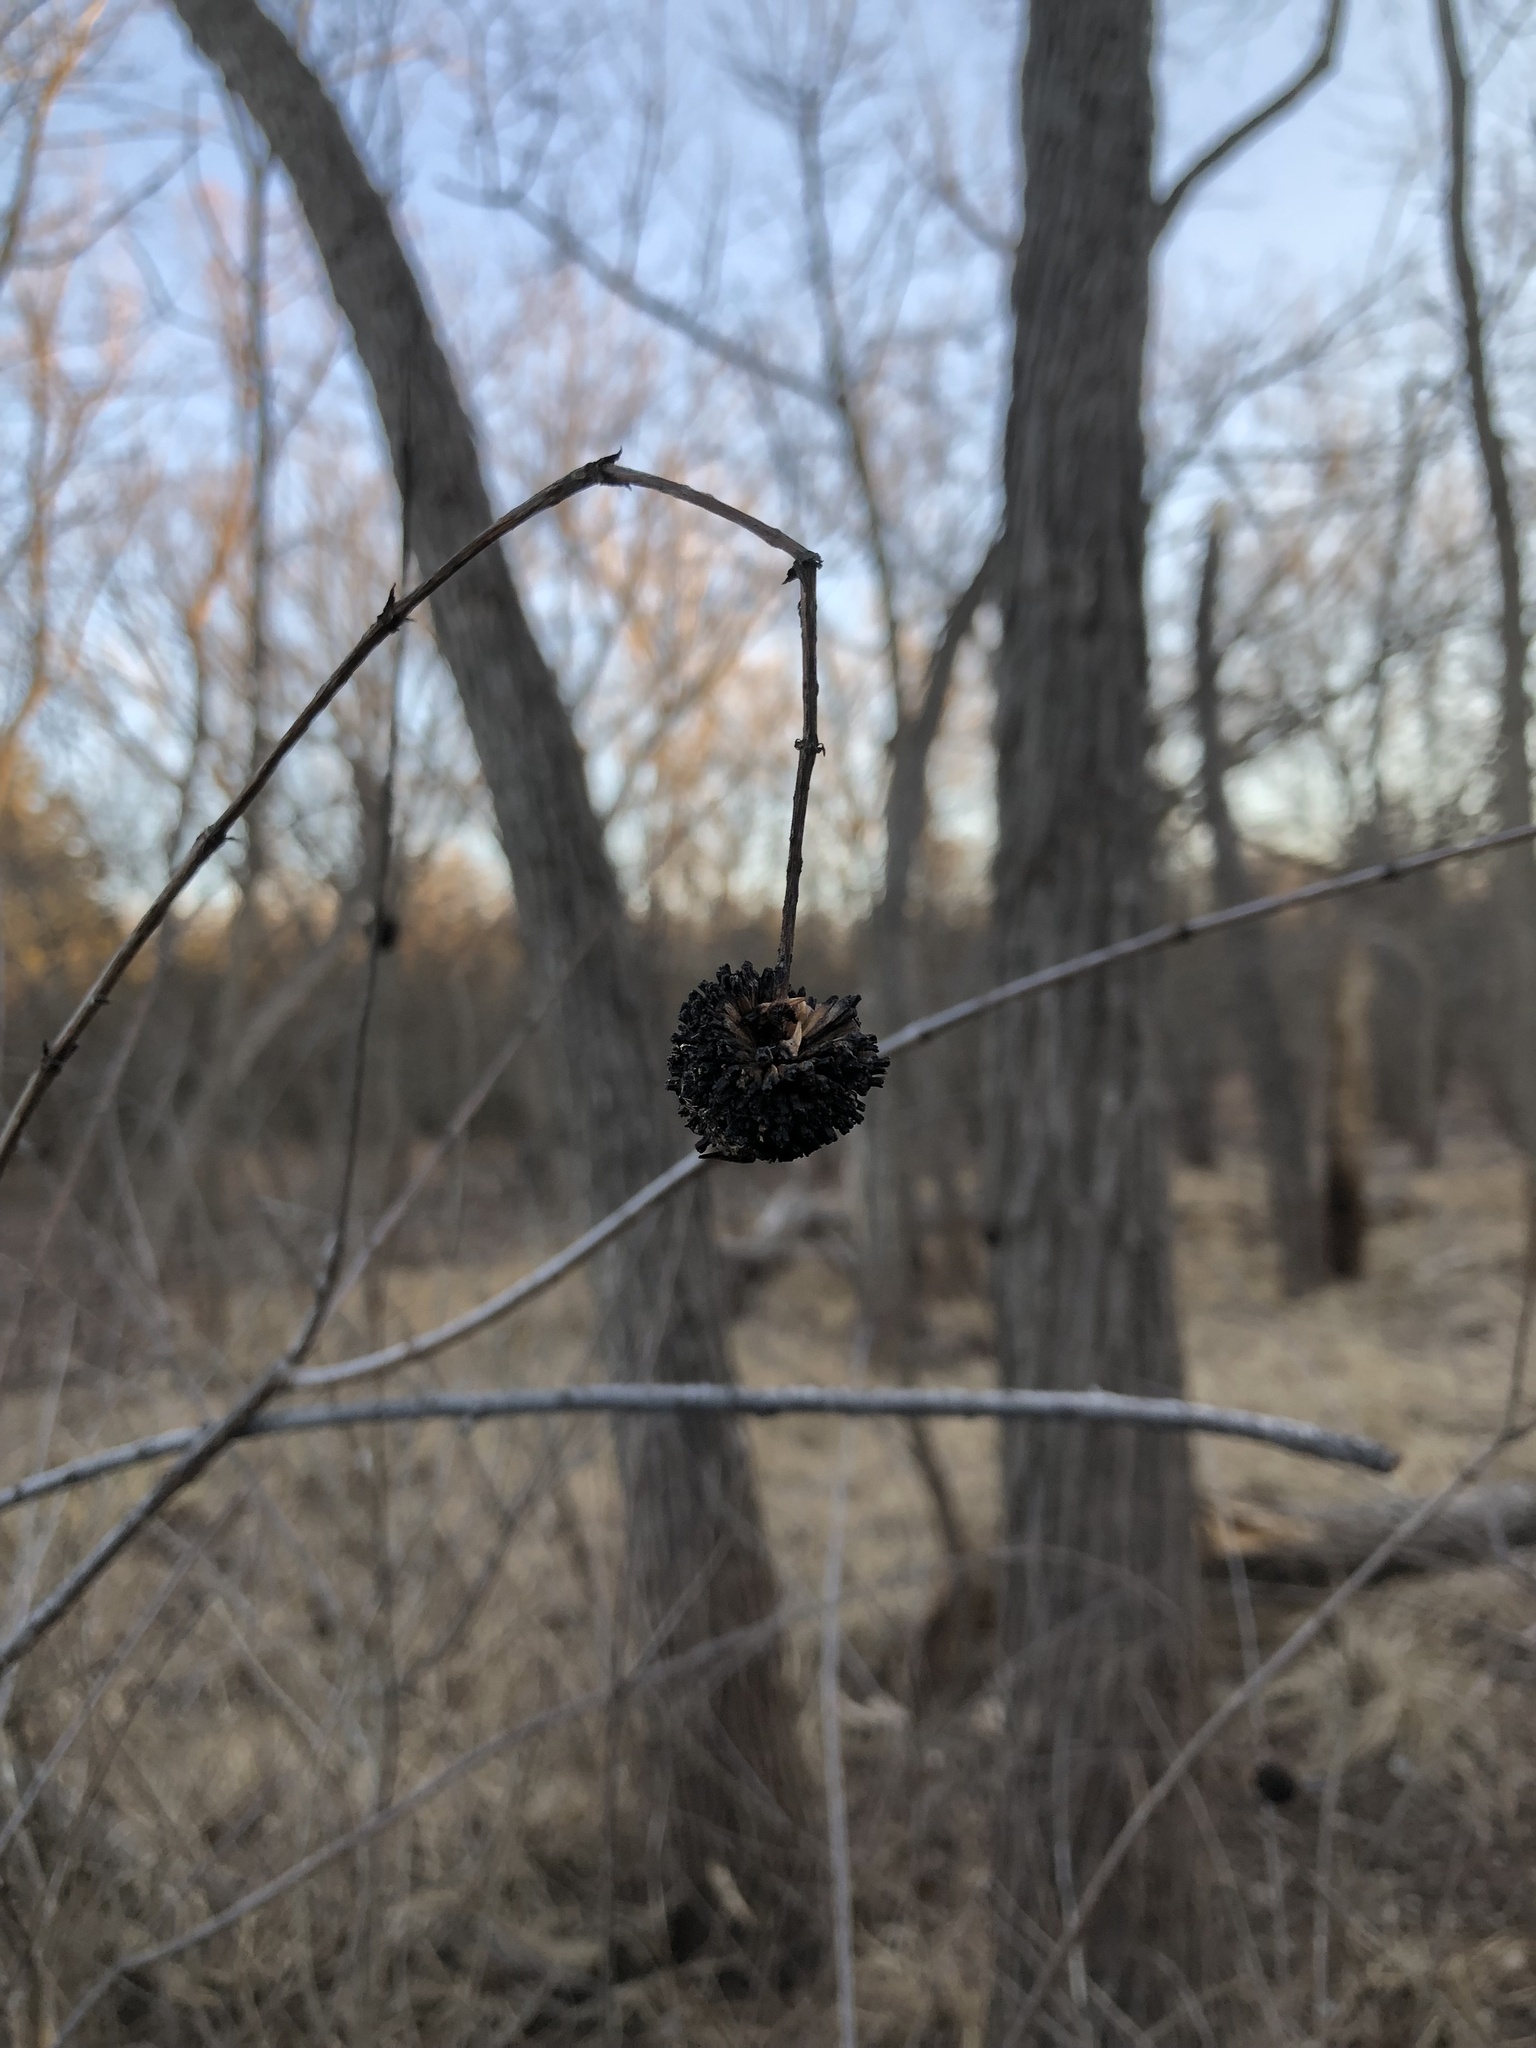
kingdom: Plantae
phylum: Tracheophyta
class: Magnoliopsida
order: Gentianales
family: Rubiaceae
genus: Cephalanthus
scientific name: Cephalanthus occidentalis
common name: Button-willow
